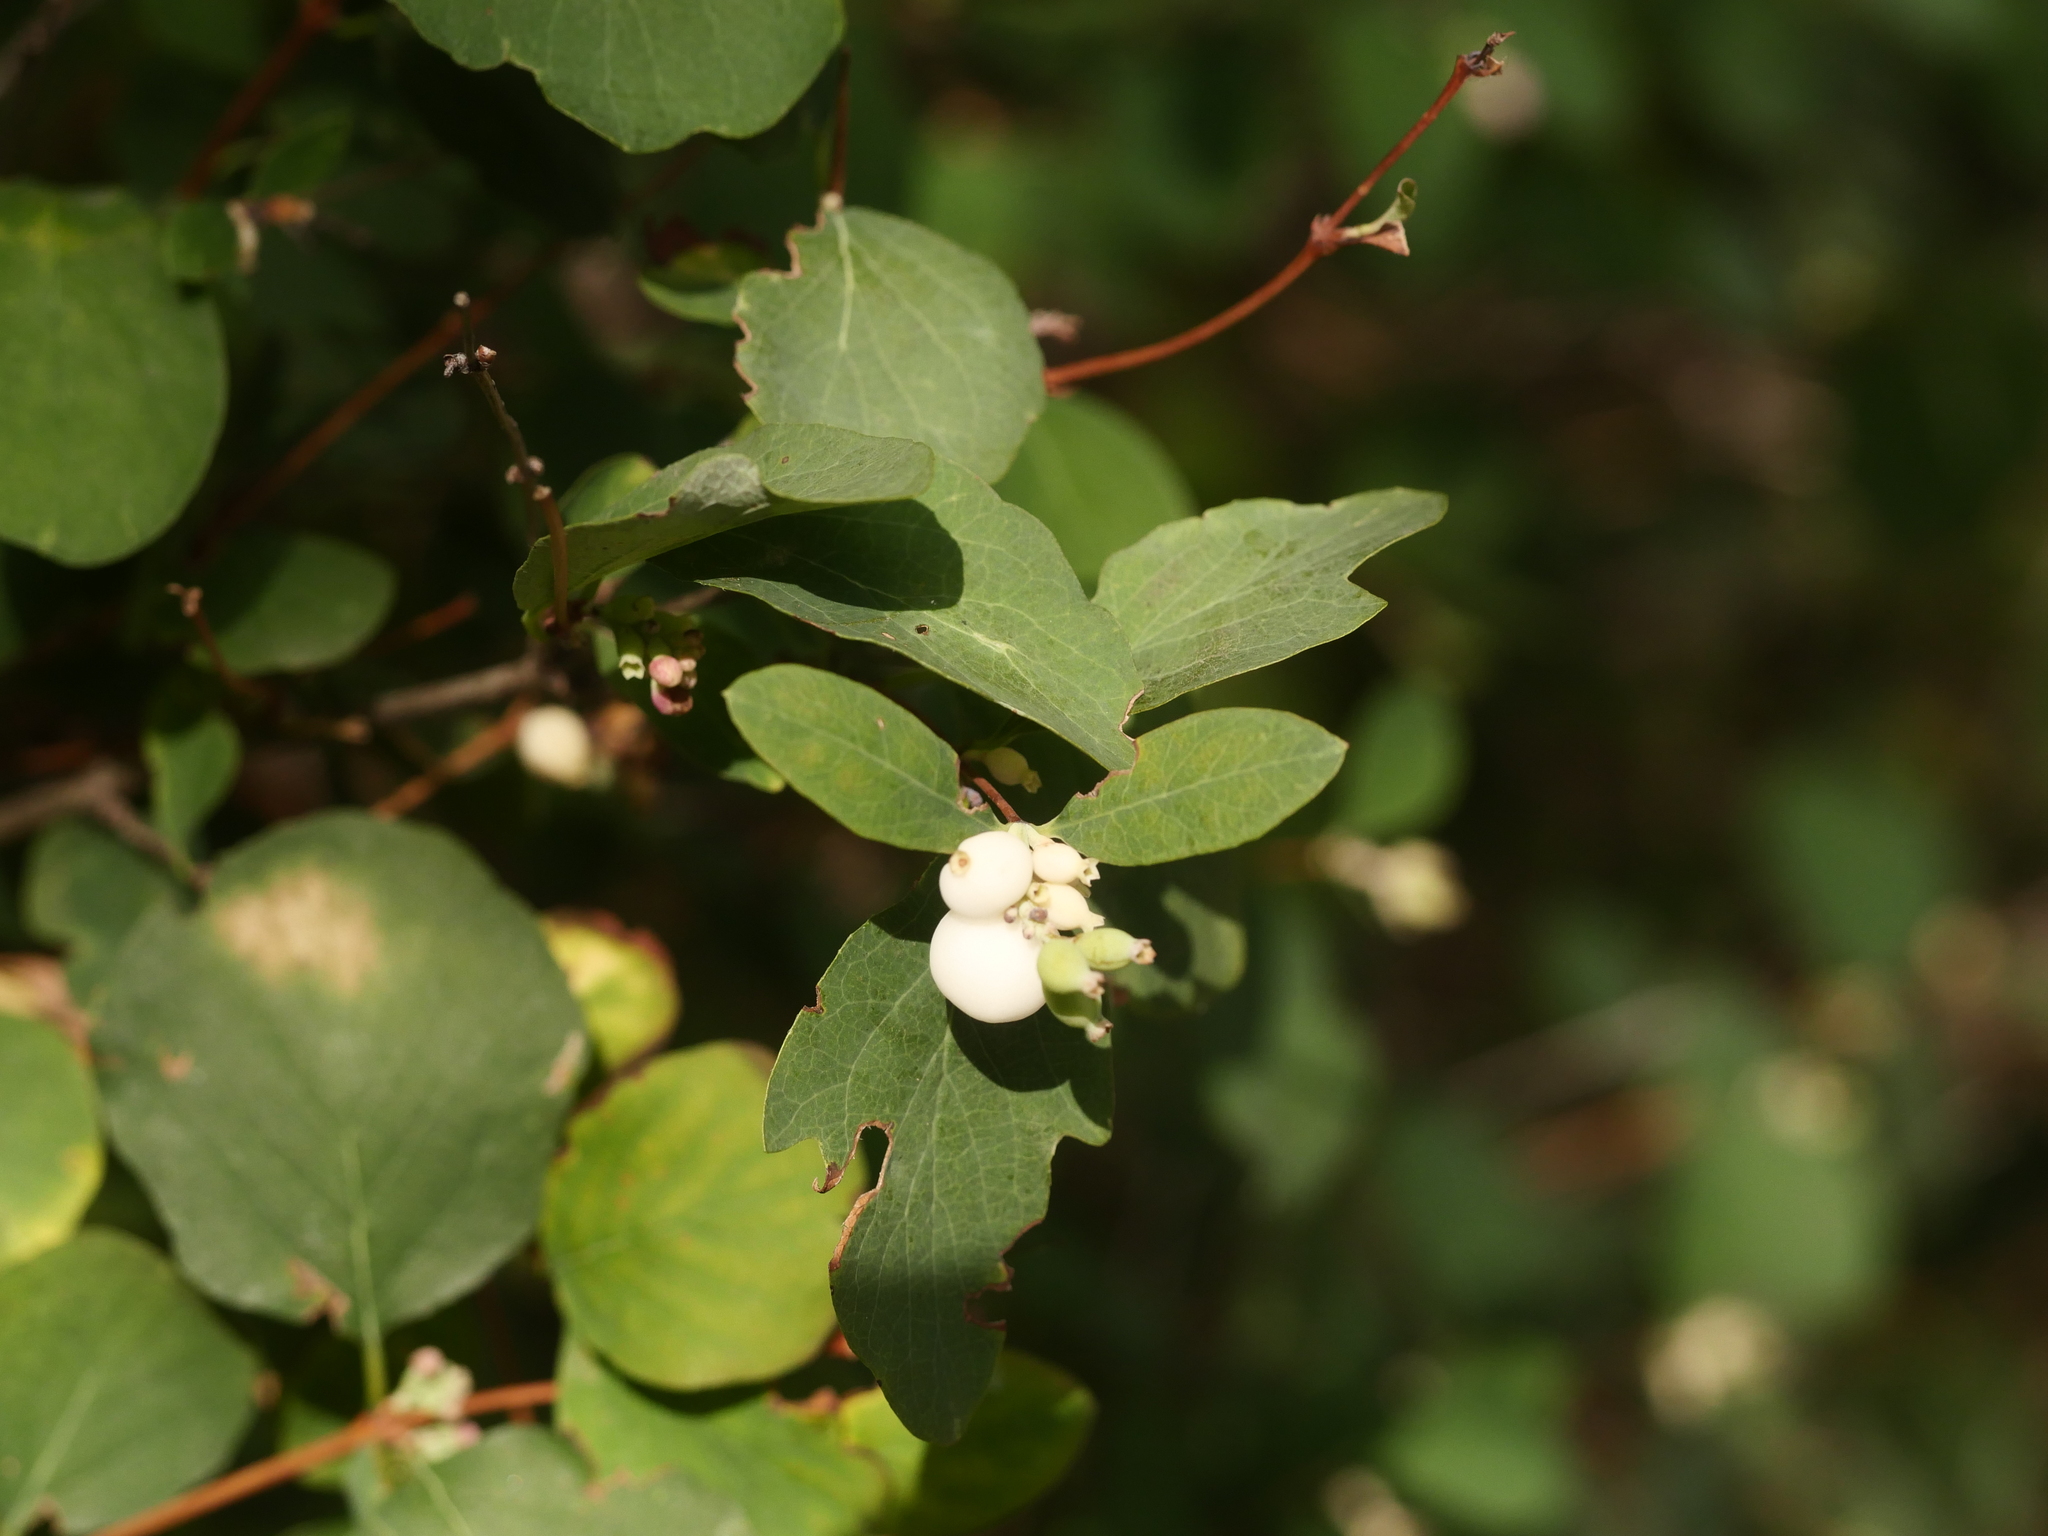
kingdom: Plantae
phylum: Tracheophyta
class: Magnoliopsida
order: Dipsacales
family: Caprifoliaceae
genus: Symphoricarpos
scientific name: Symphoricarpos albus
